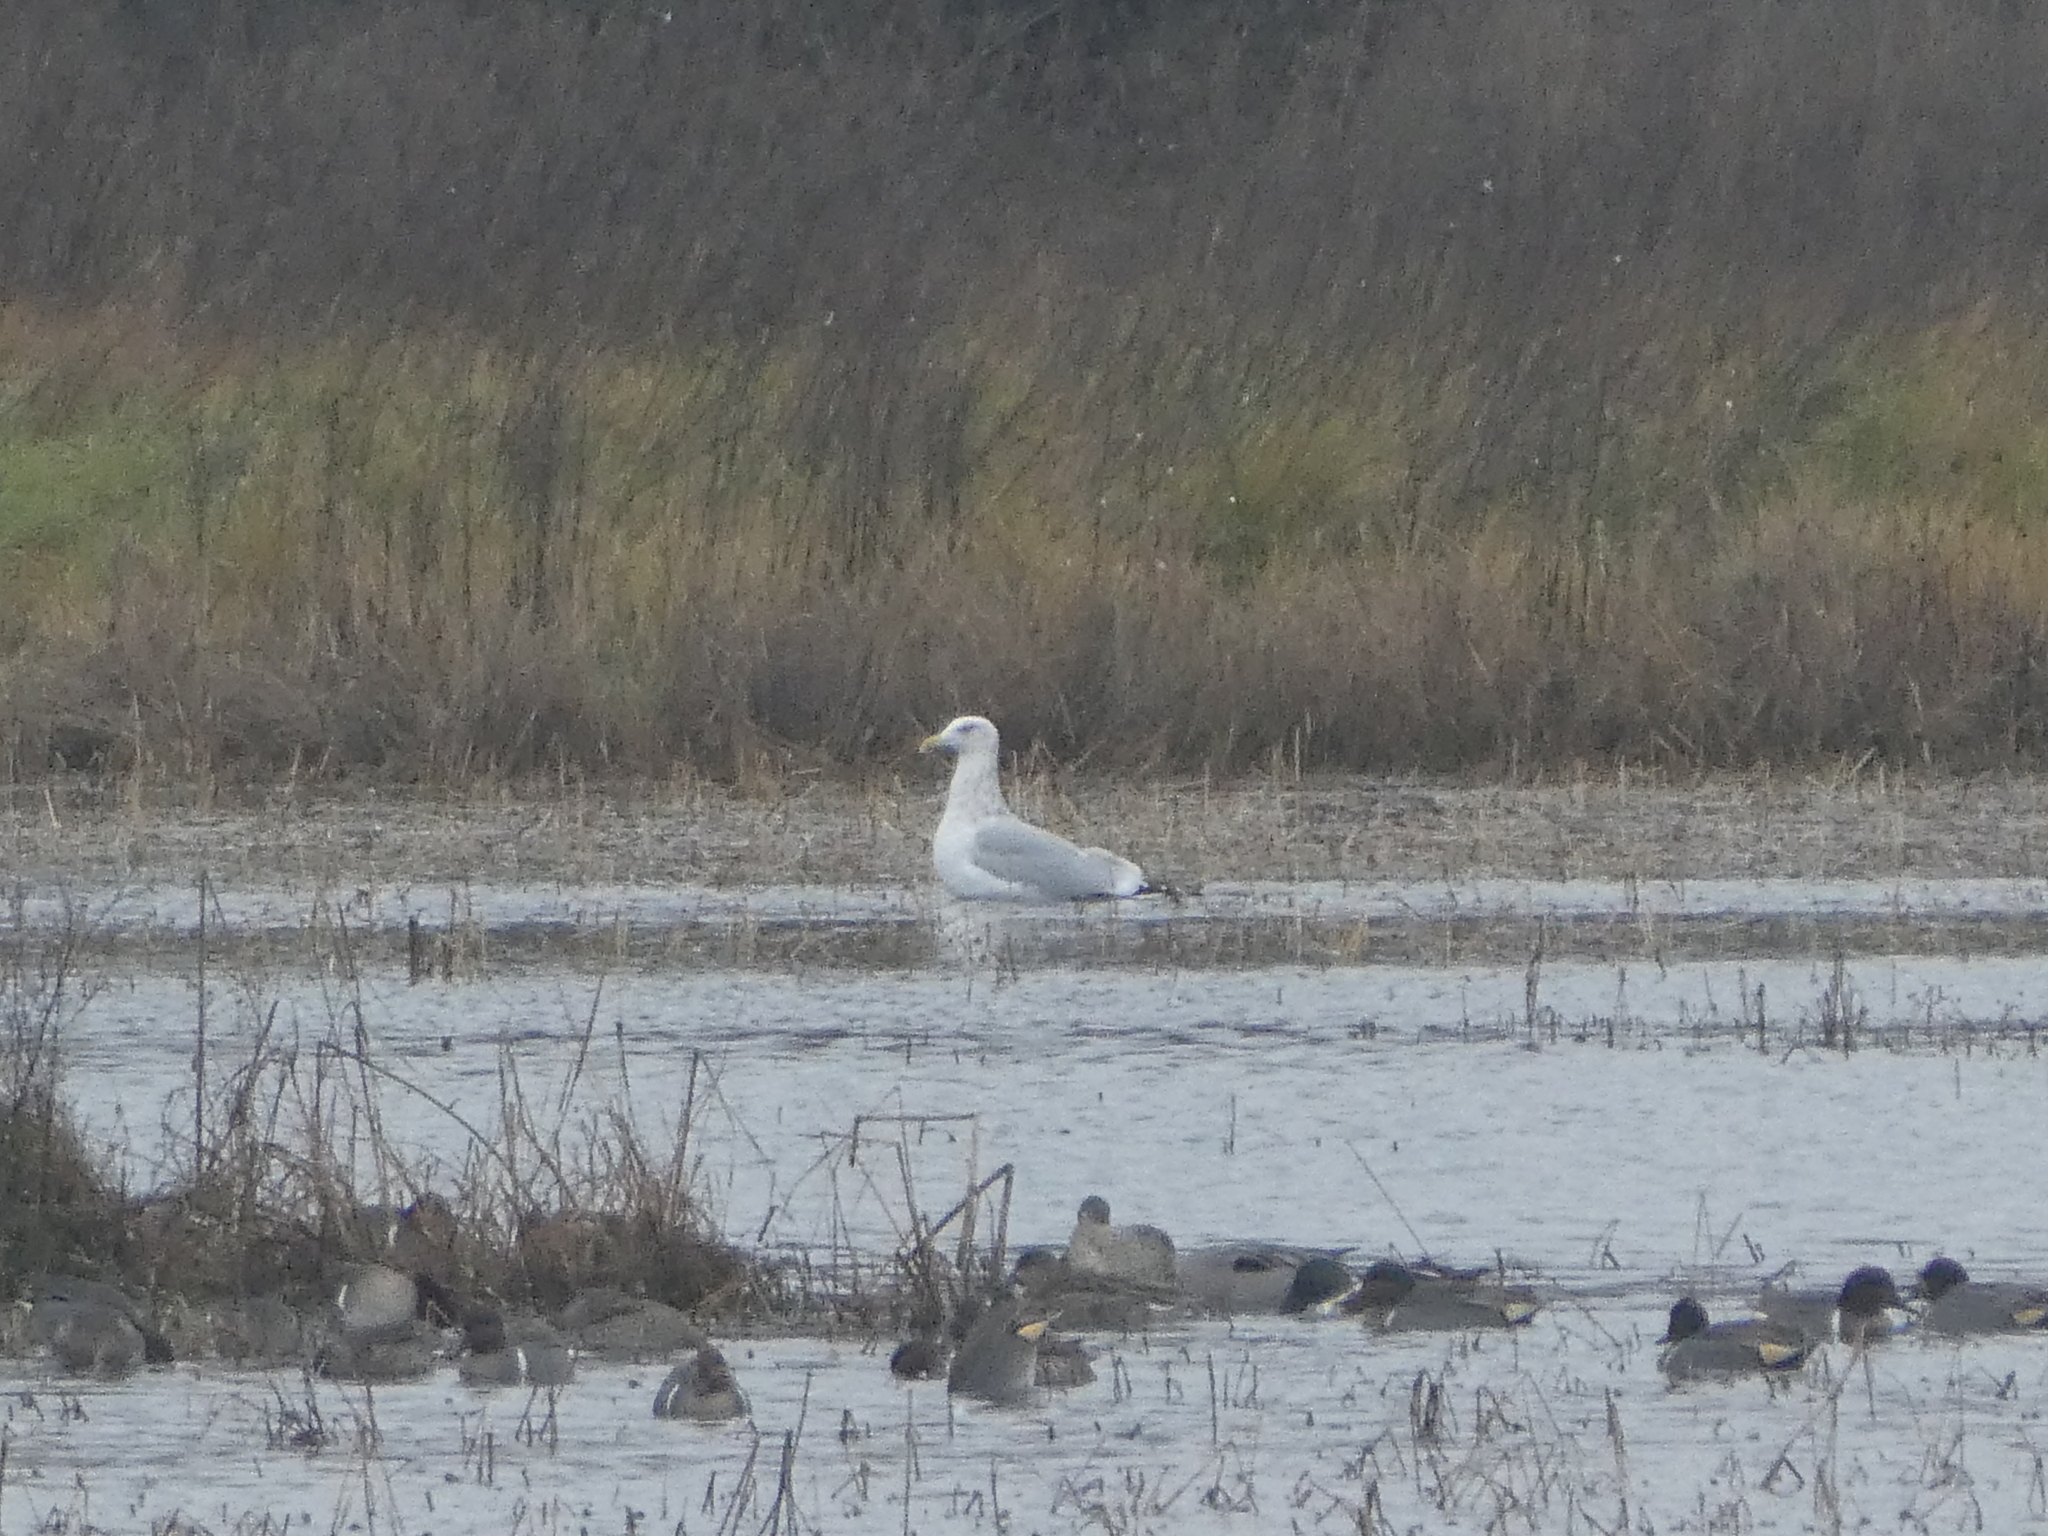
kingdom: Animalia
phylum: Chordata
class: Aves
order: Charadriiformes
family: Laridae
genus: Larus
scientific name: Larus argentatus
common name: Herring gull
